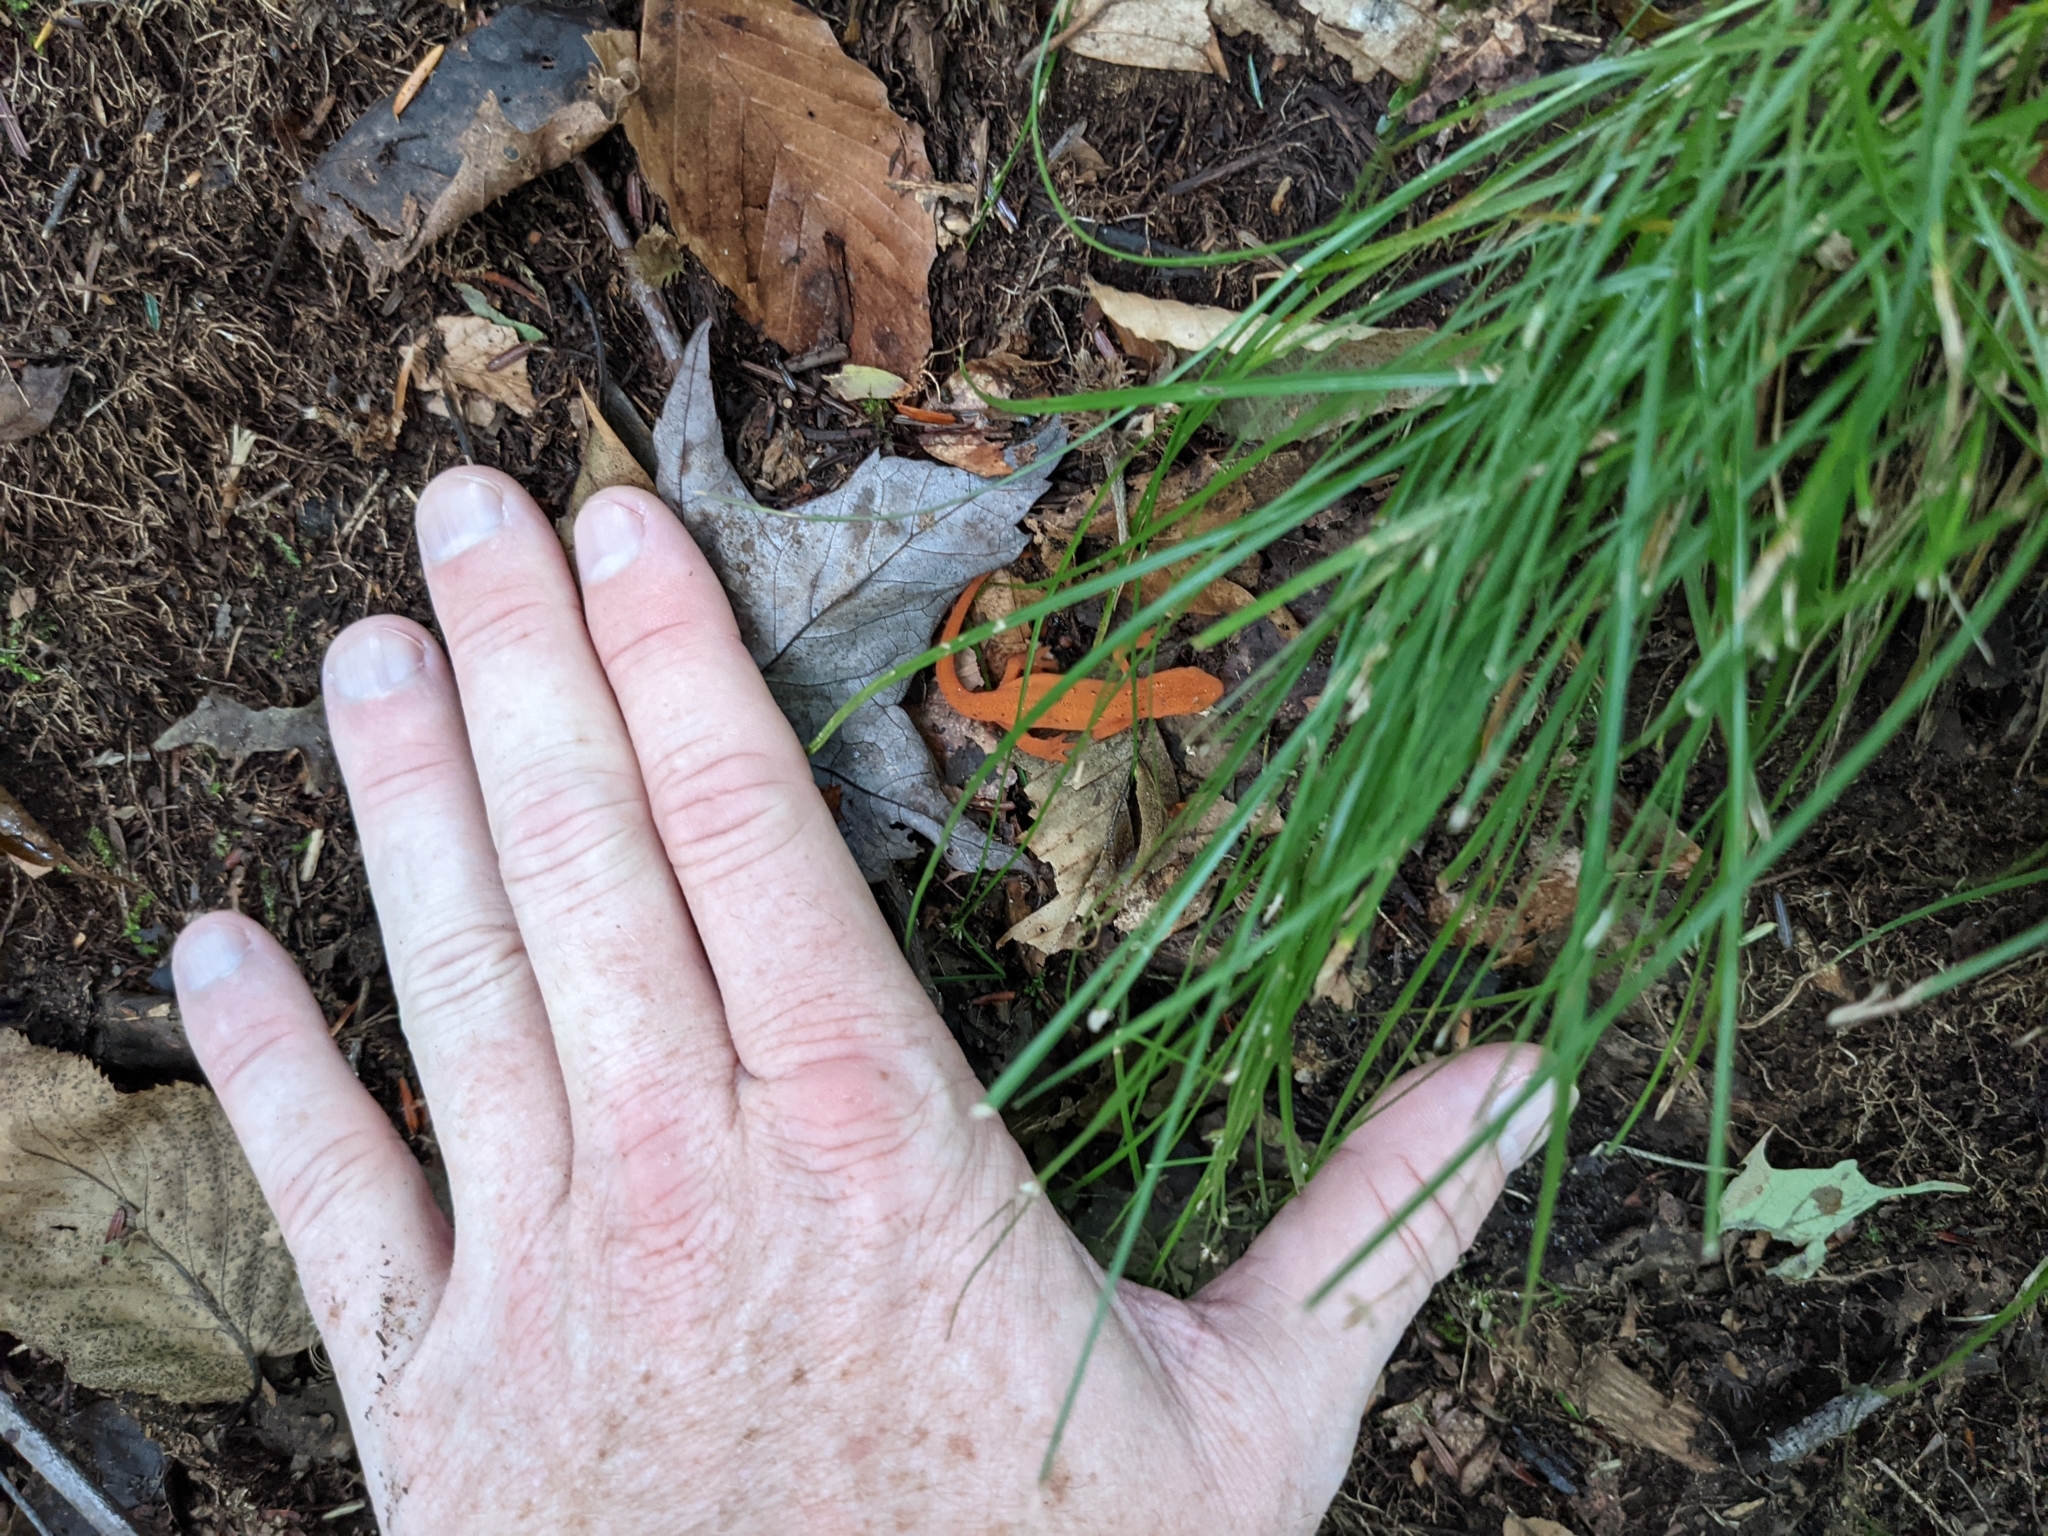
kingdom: Animalia
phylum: Chordata
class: Amphibia
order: Caudata
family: Salamandridae
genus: Notophthalmus
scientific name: Notophthalmus viridescens
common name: Eastern newt
